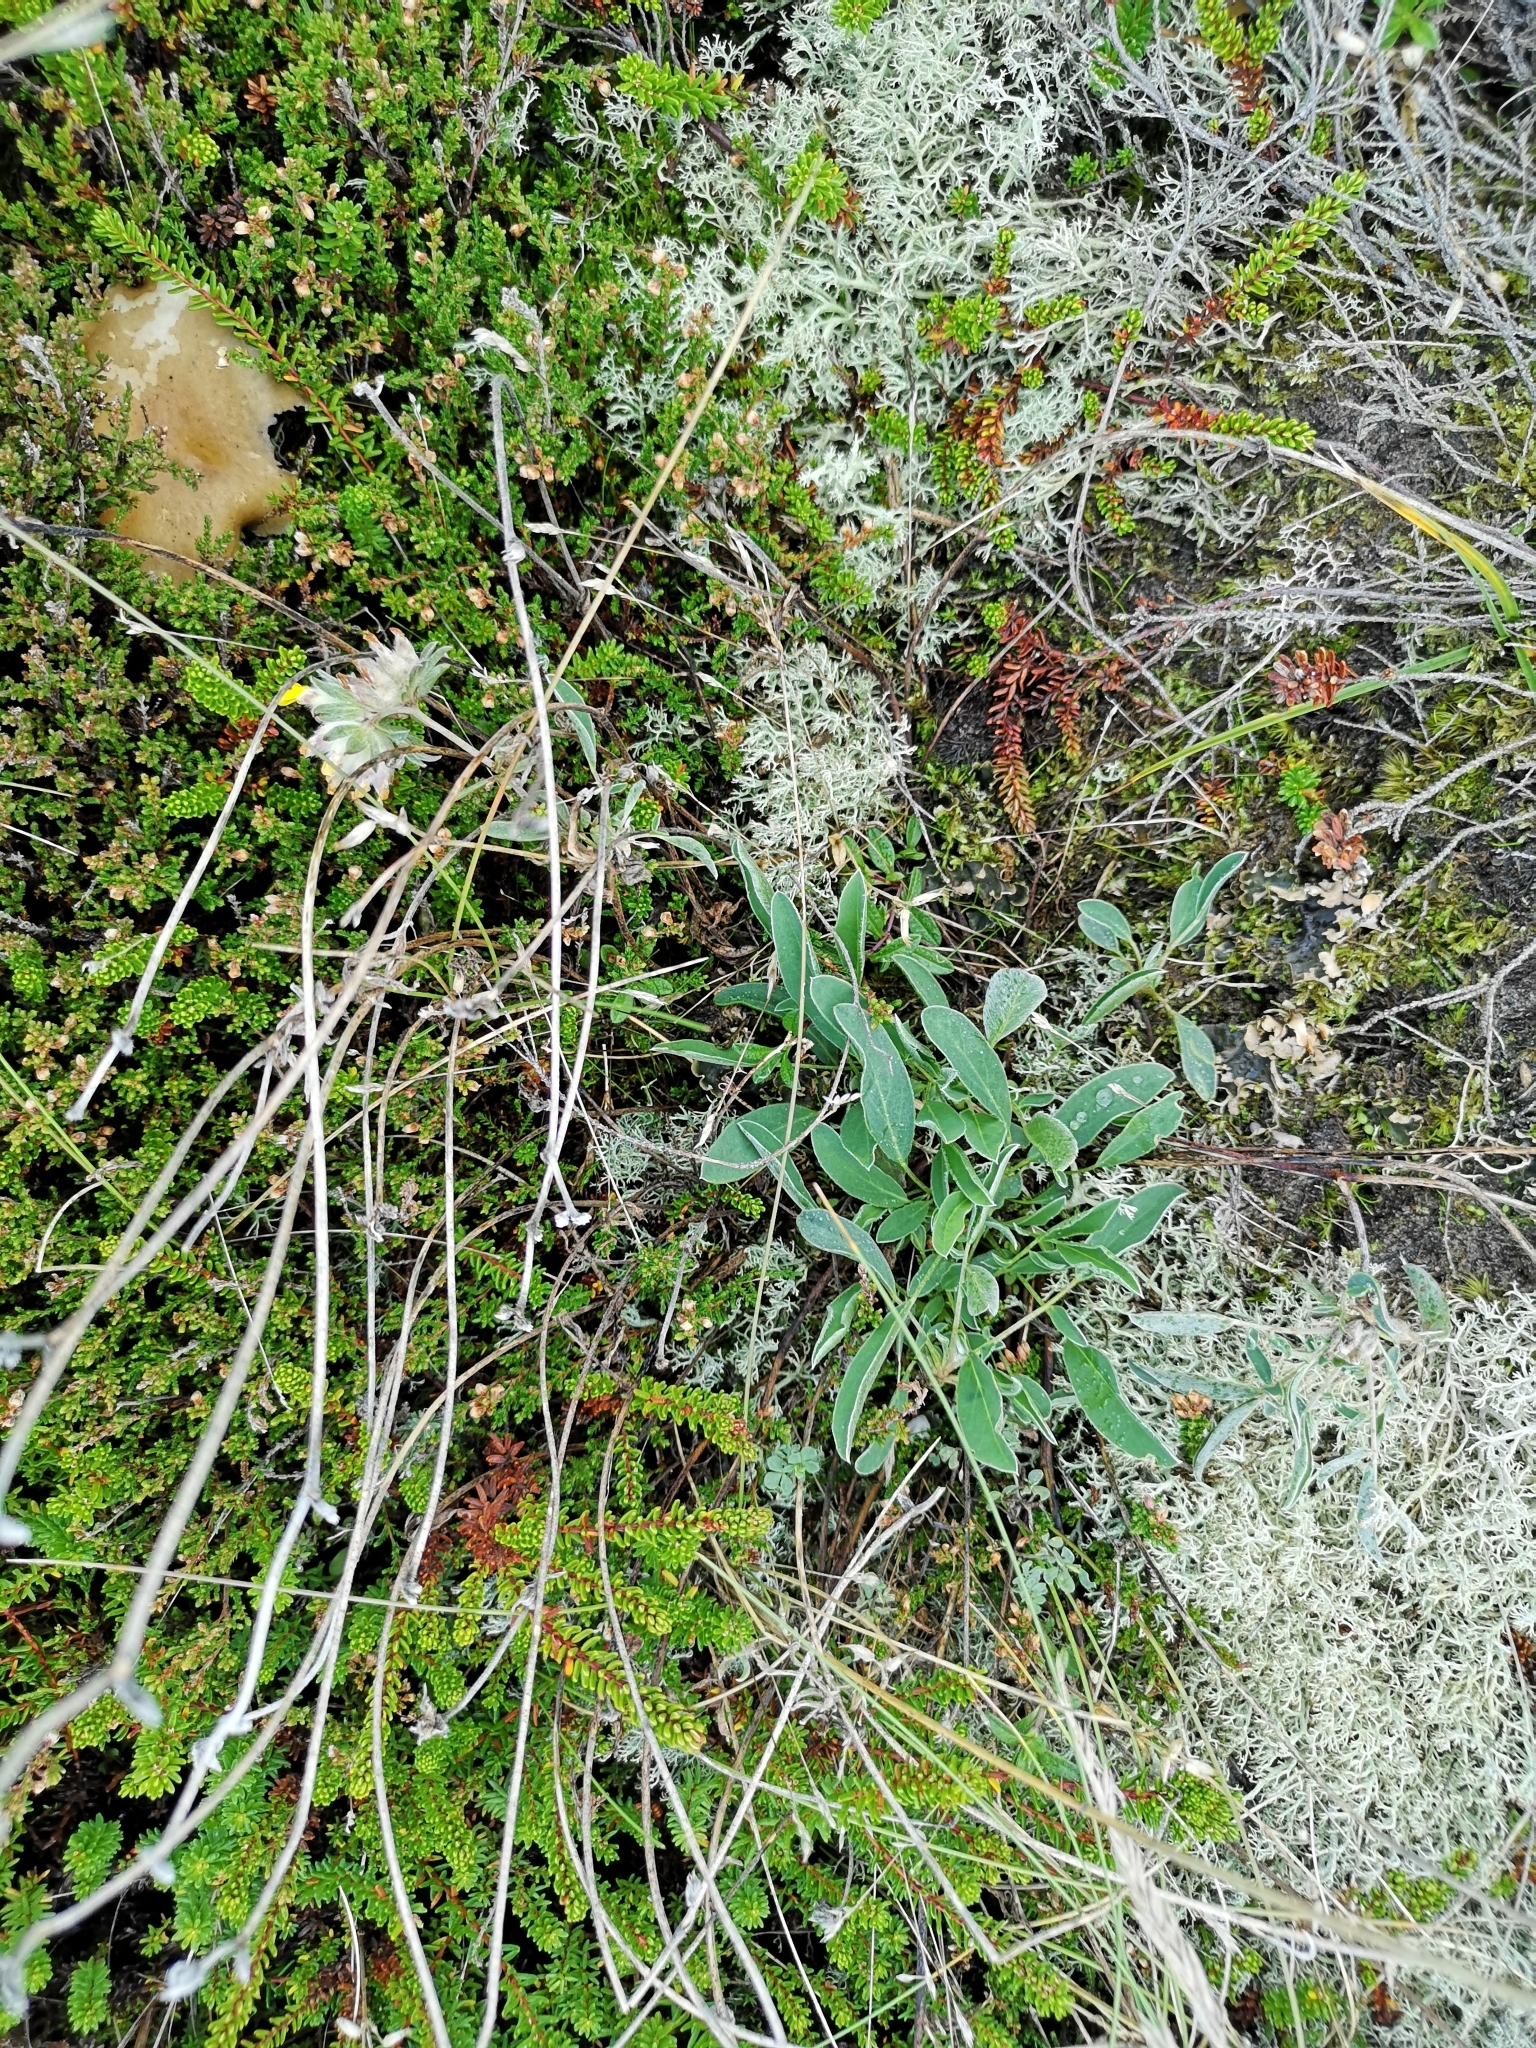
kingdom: Plantae
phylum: Tracheophyta
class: Magnoliopsida
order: Fabales
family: Fabaceae
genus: Anthyllis
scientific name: Anthyllis vulneraria
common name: Kidney vetch
